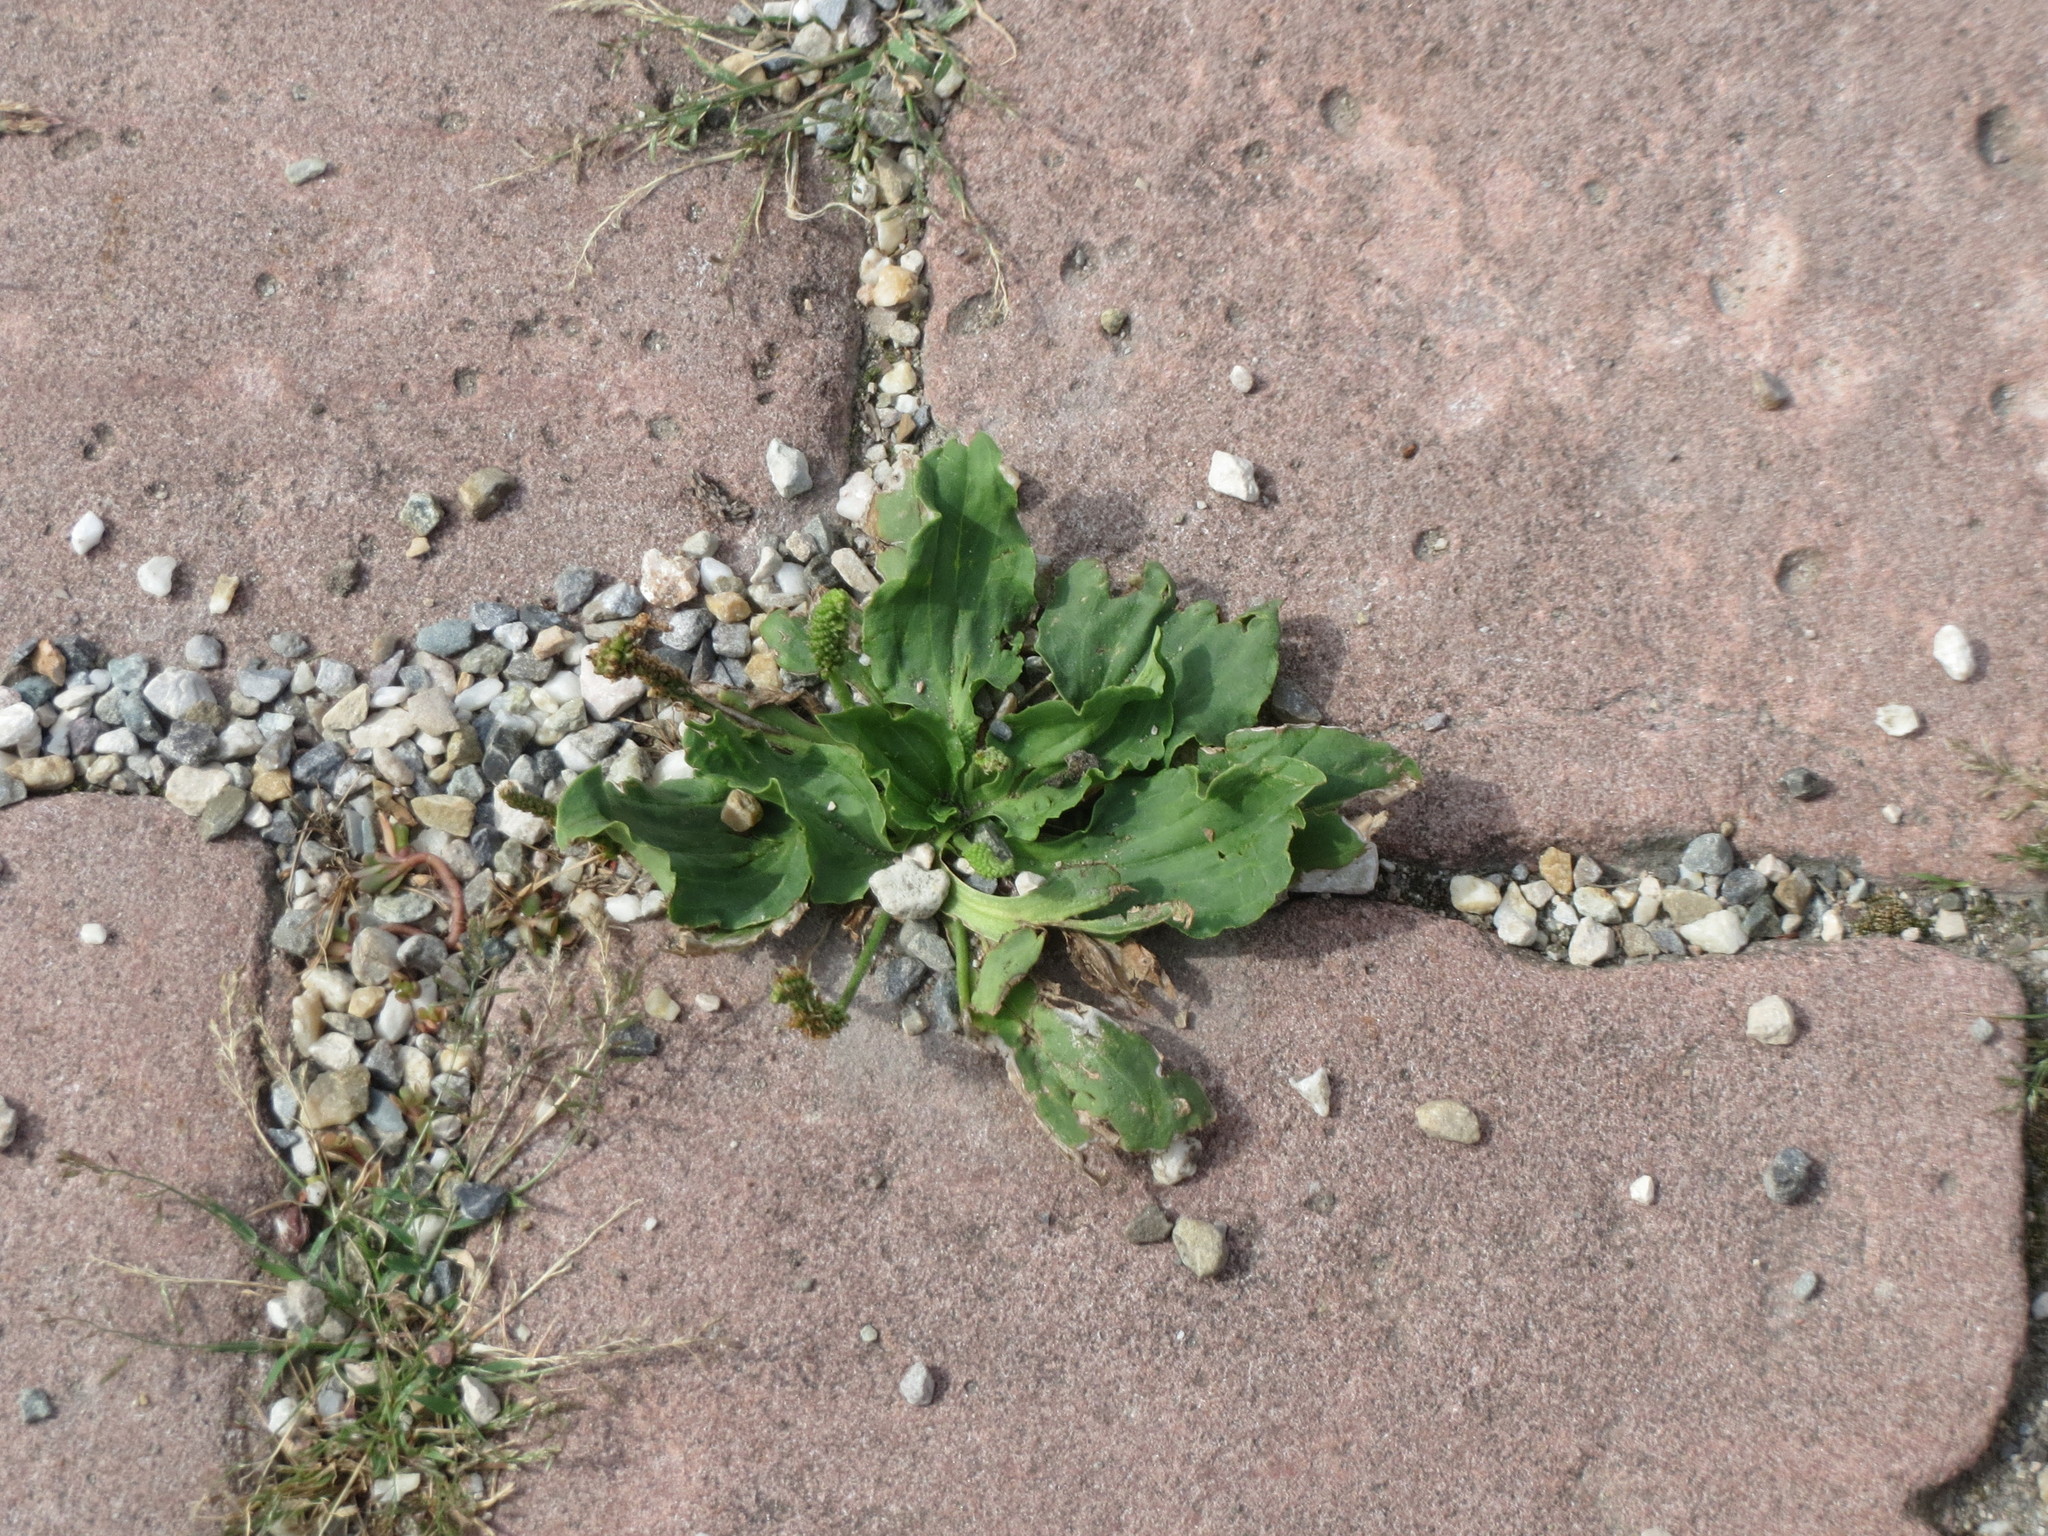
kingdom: Plantae
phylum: Tracheophyta
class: Magnoliopsida
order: Lamiales
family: Plantaginaceae
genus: Plantago
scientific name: Plantago major
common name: Common plantain
